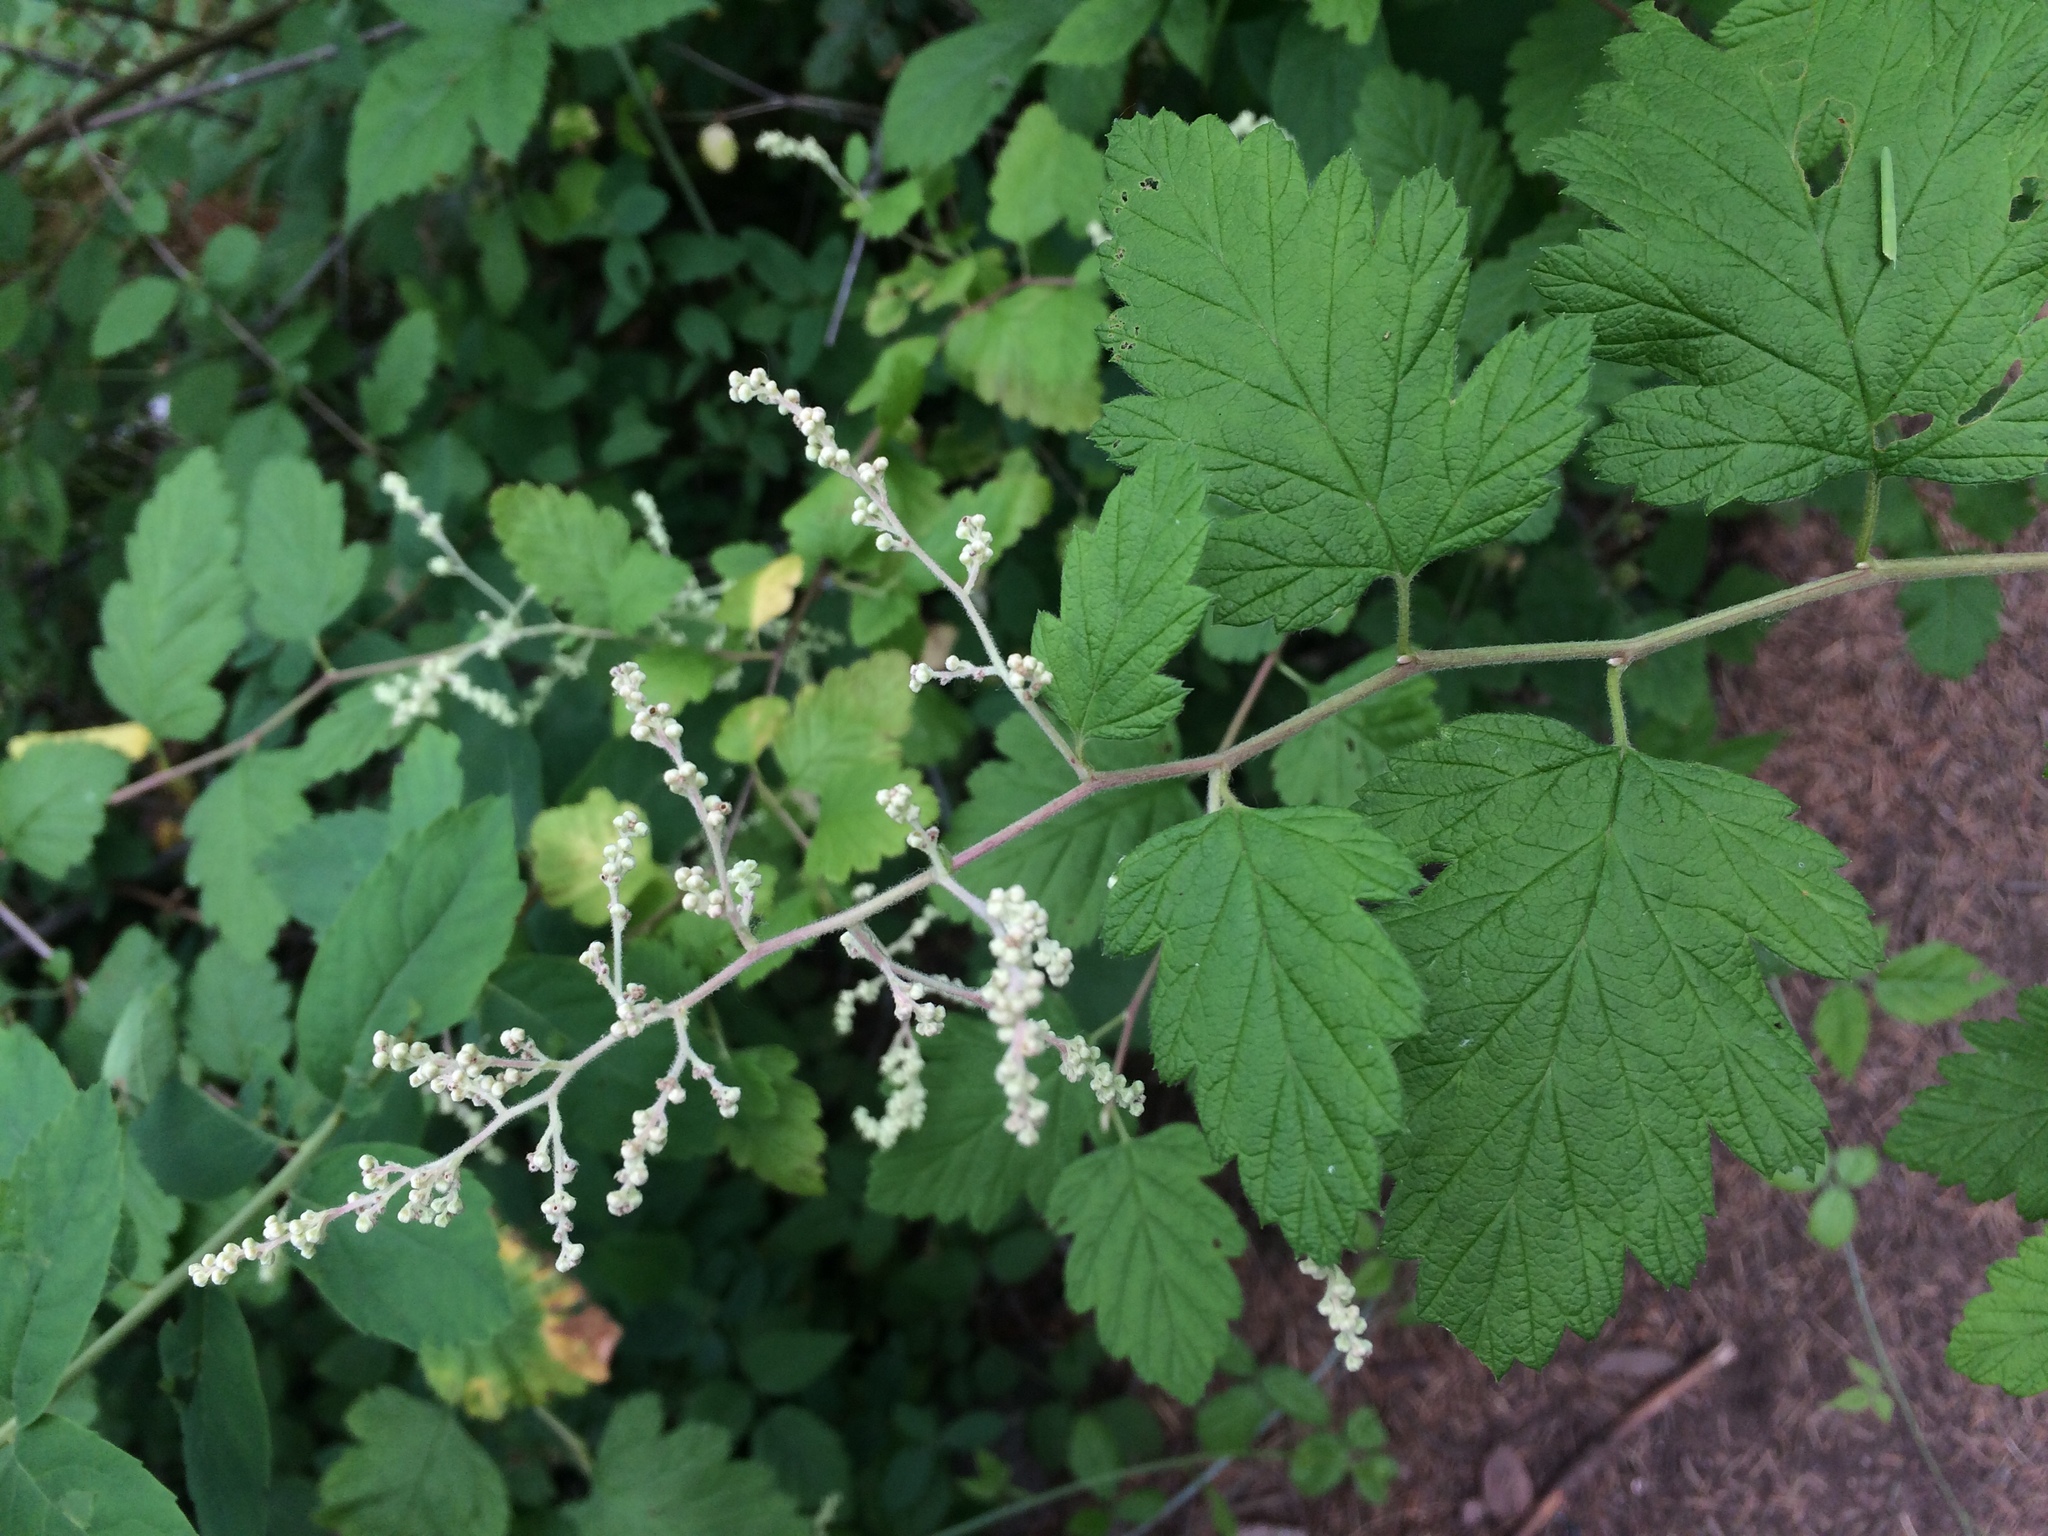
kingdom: Plantae
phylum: Tracheophyta
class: Magnoliopsida
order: Rosales
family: Rosaceae
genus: Holodiscus
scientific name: Holodiscus discolor
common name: Oceanspray
